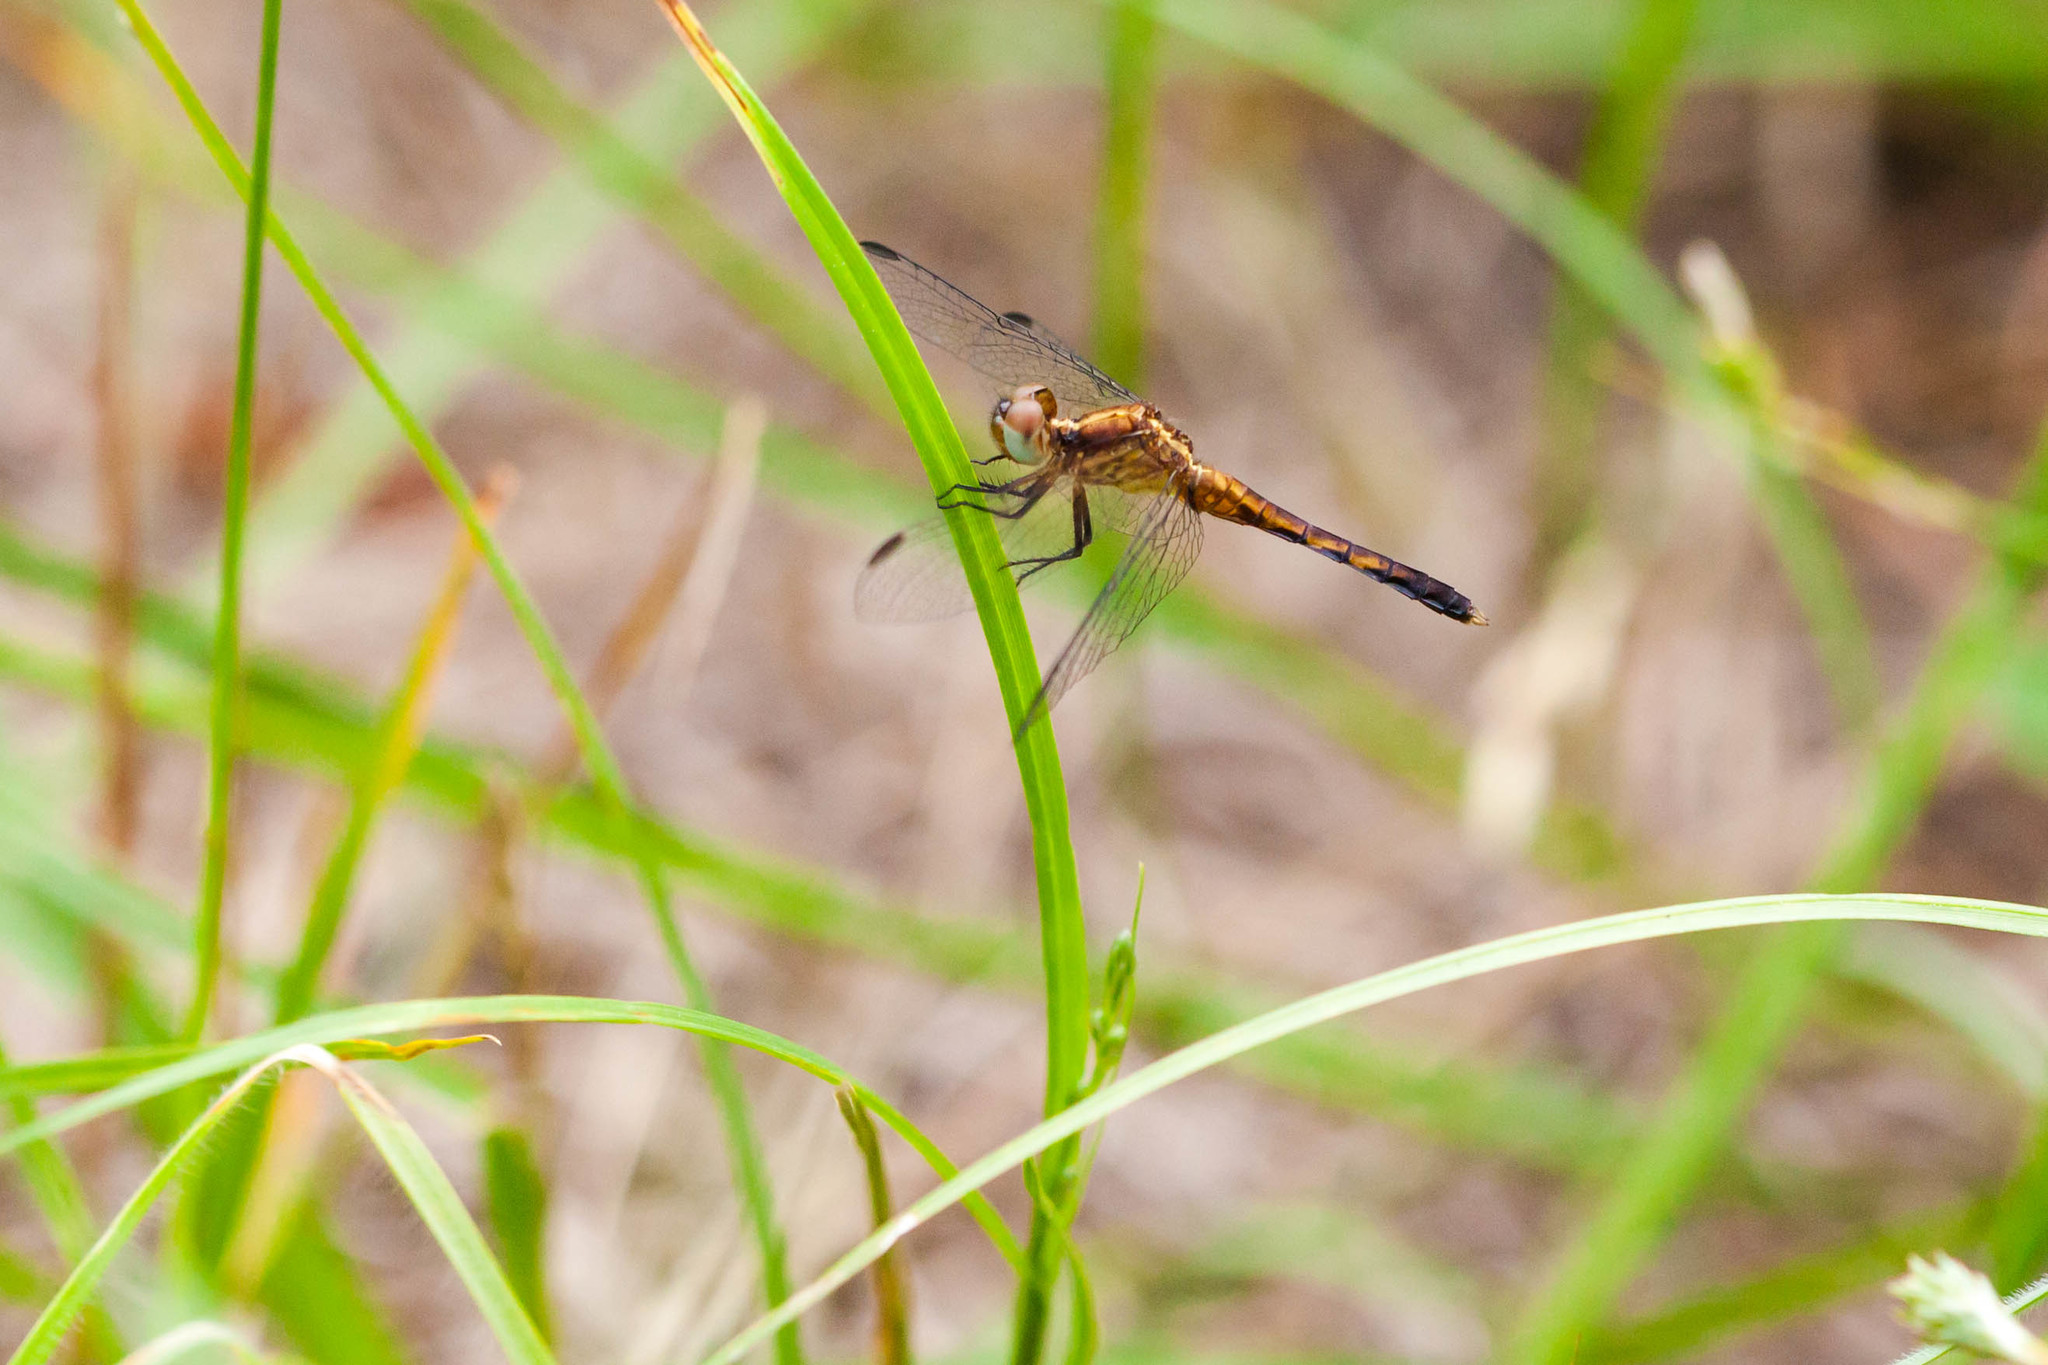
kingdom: Animalia
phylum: Arthropoda
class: Insecta
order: Odonata
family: Libellulidae
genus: Erythrodiplax
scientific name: Erythrodiplax minuscula
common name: Little blue dragonlet
